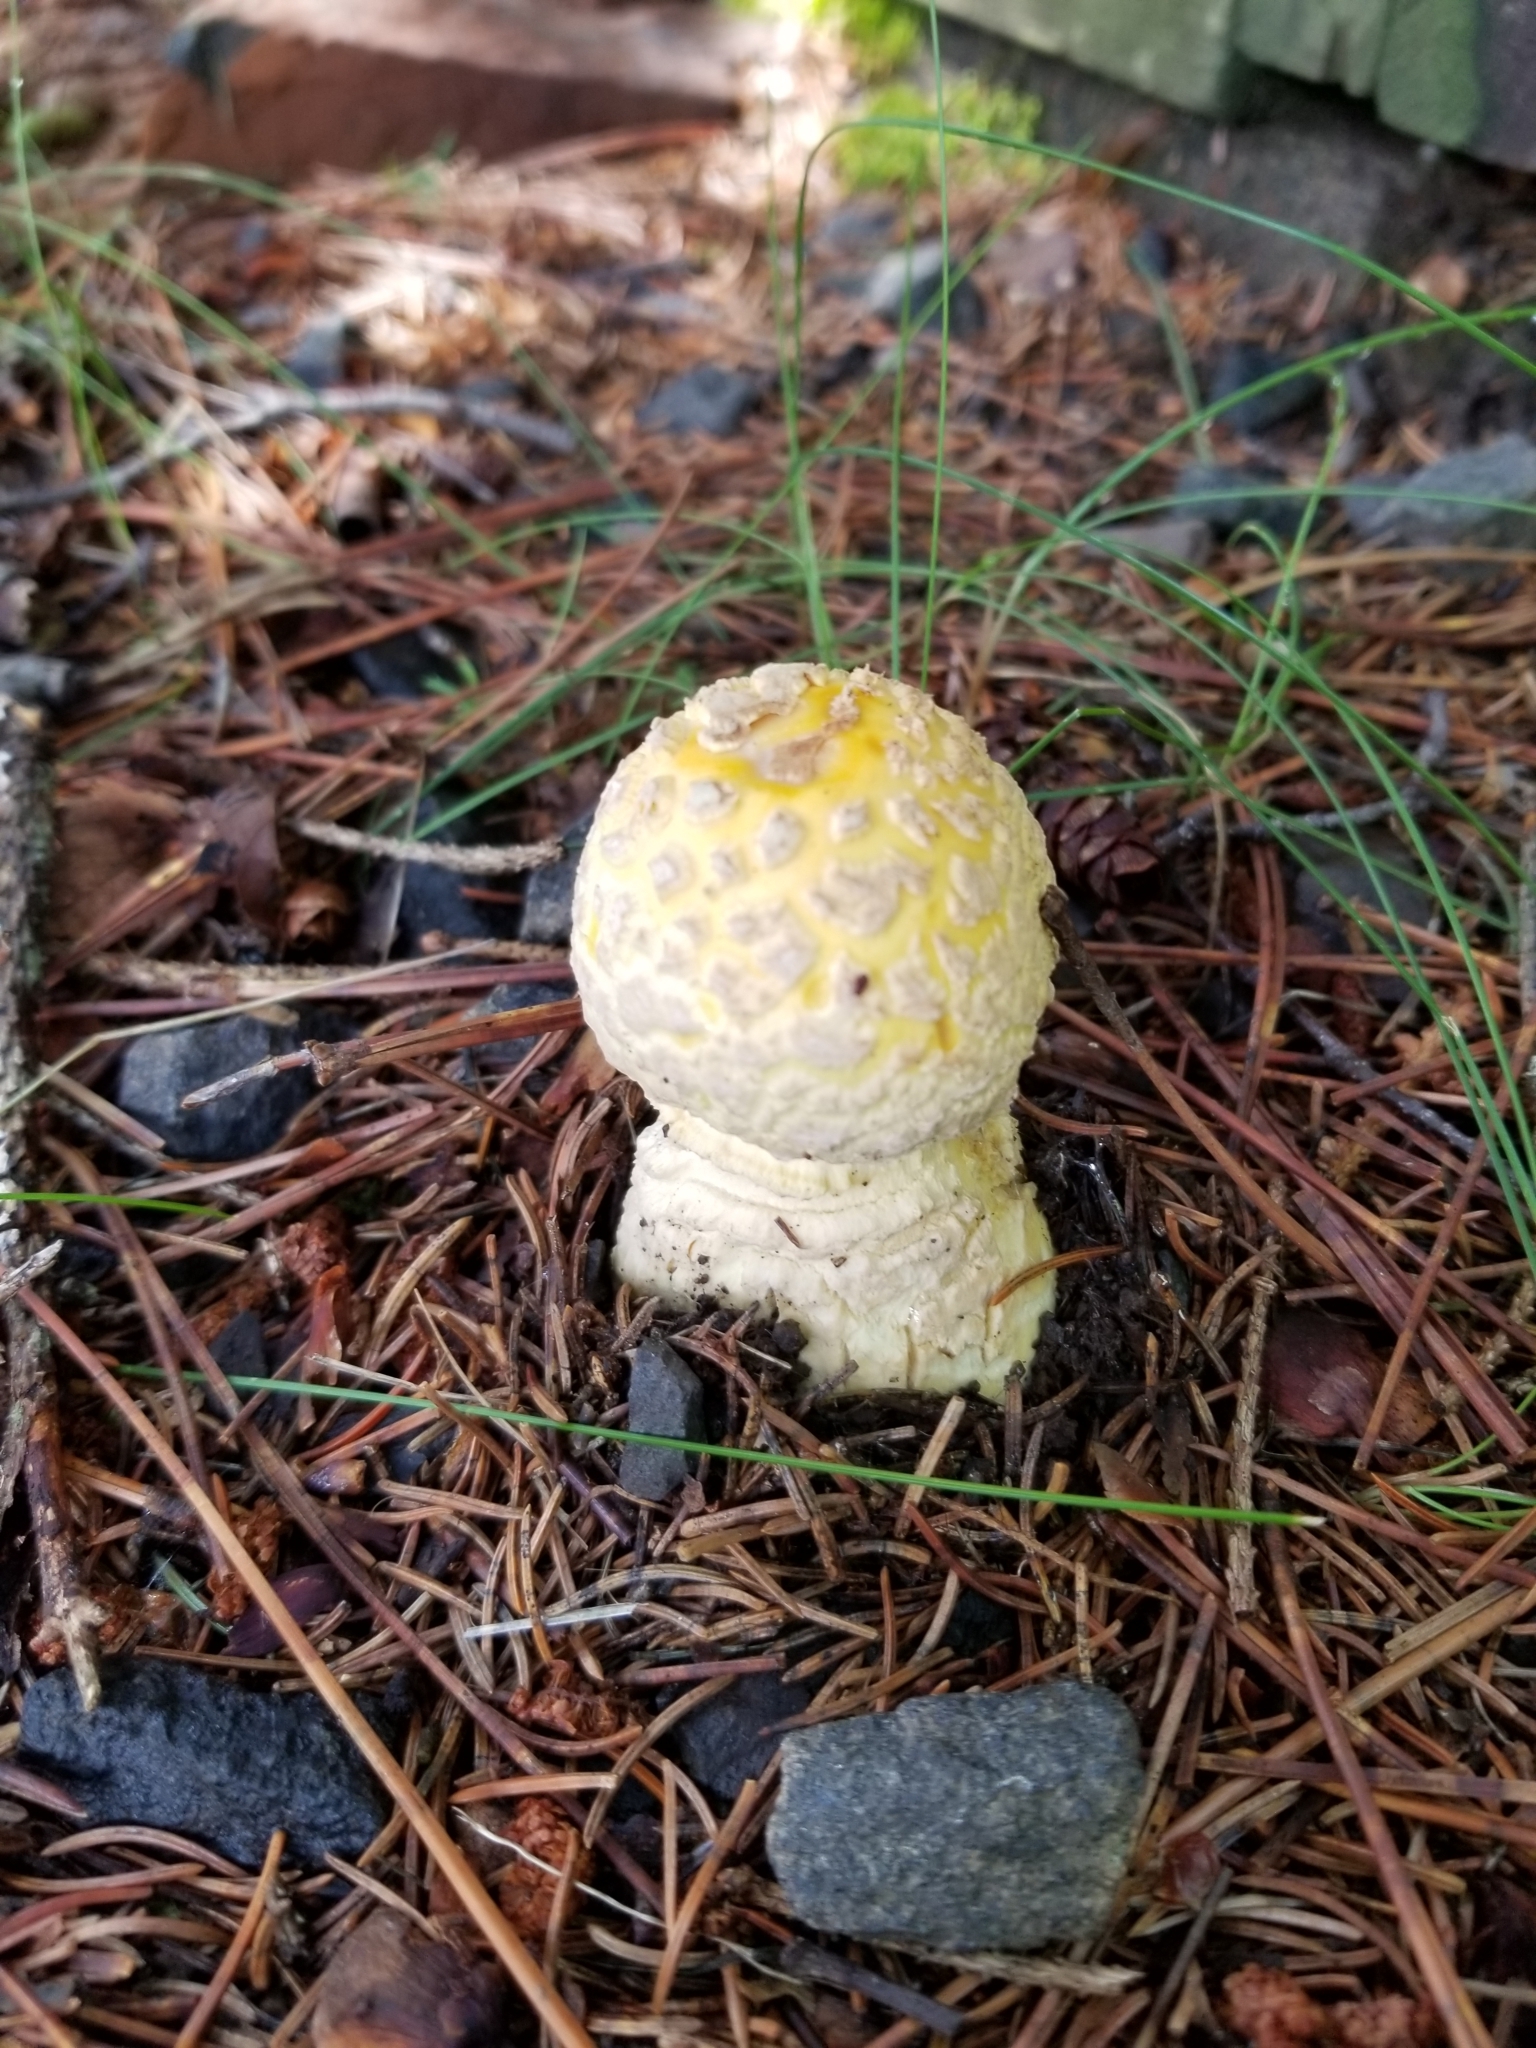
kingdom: Fungi
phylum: Basidiomycota
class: Agaricomycetes
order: Agaricales
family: Amanitaceae
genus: Amanita
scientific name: Amanita muscaria
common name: Fly agaric
